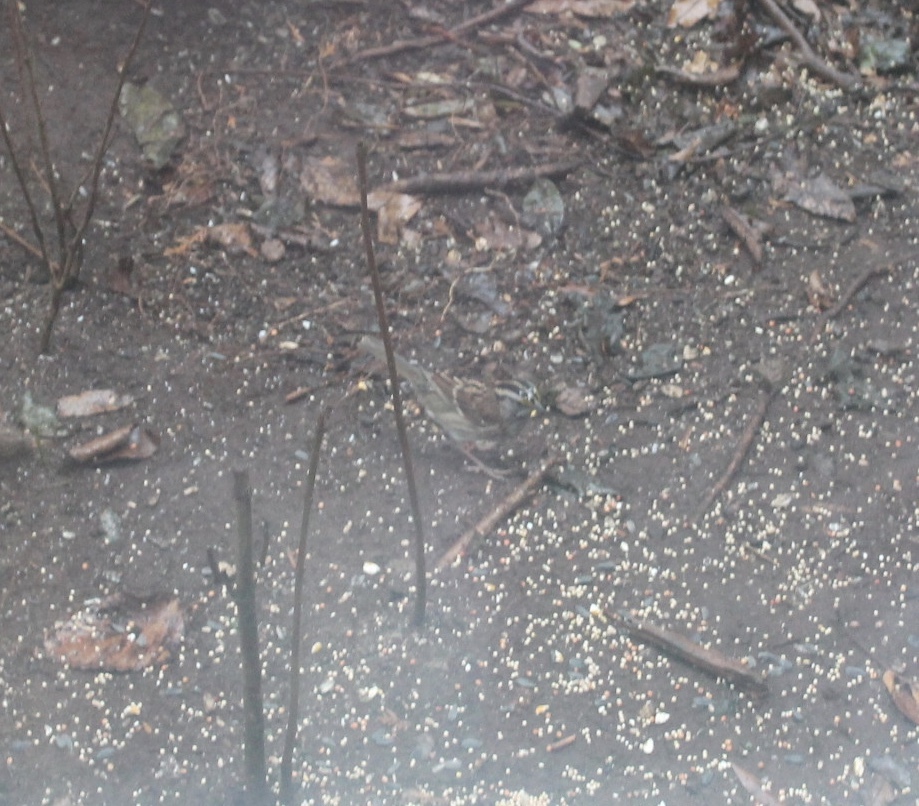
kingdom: Animalia
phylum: Chordata
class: Aves
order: Passeriformes
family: Passerellidae
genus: Zonotrichia
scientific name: Zonotrichia albicollis
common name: White-throated sparrow
